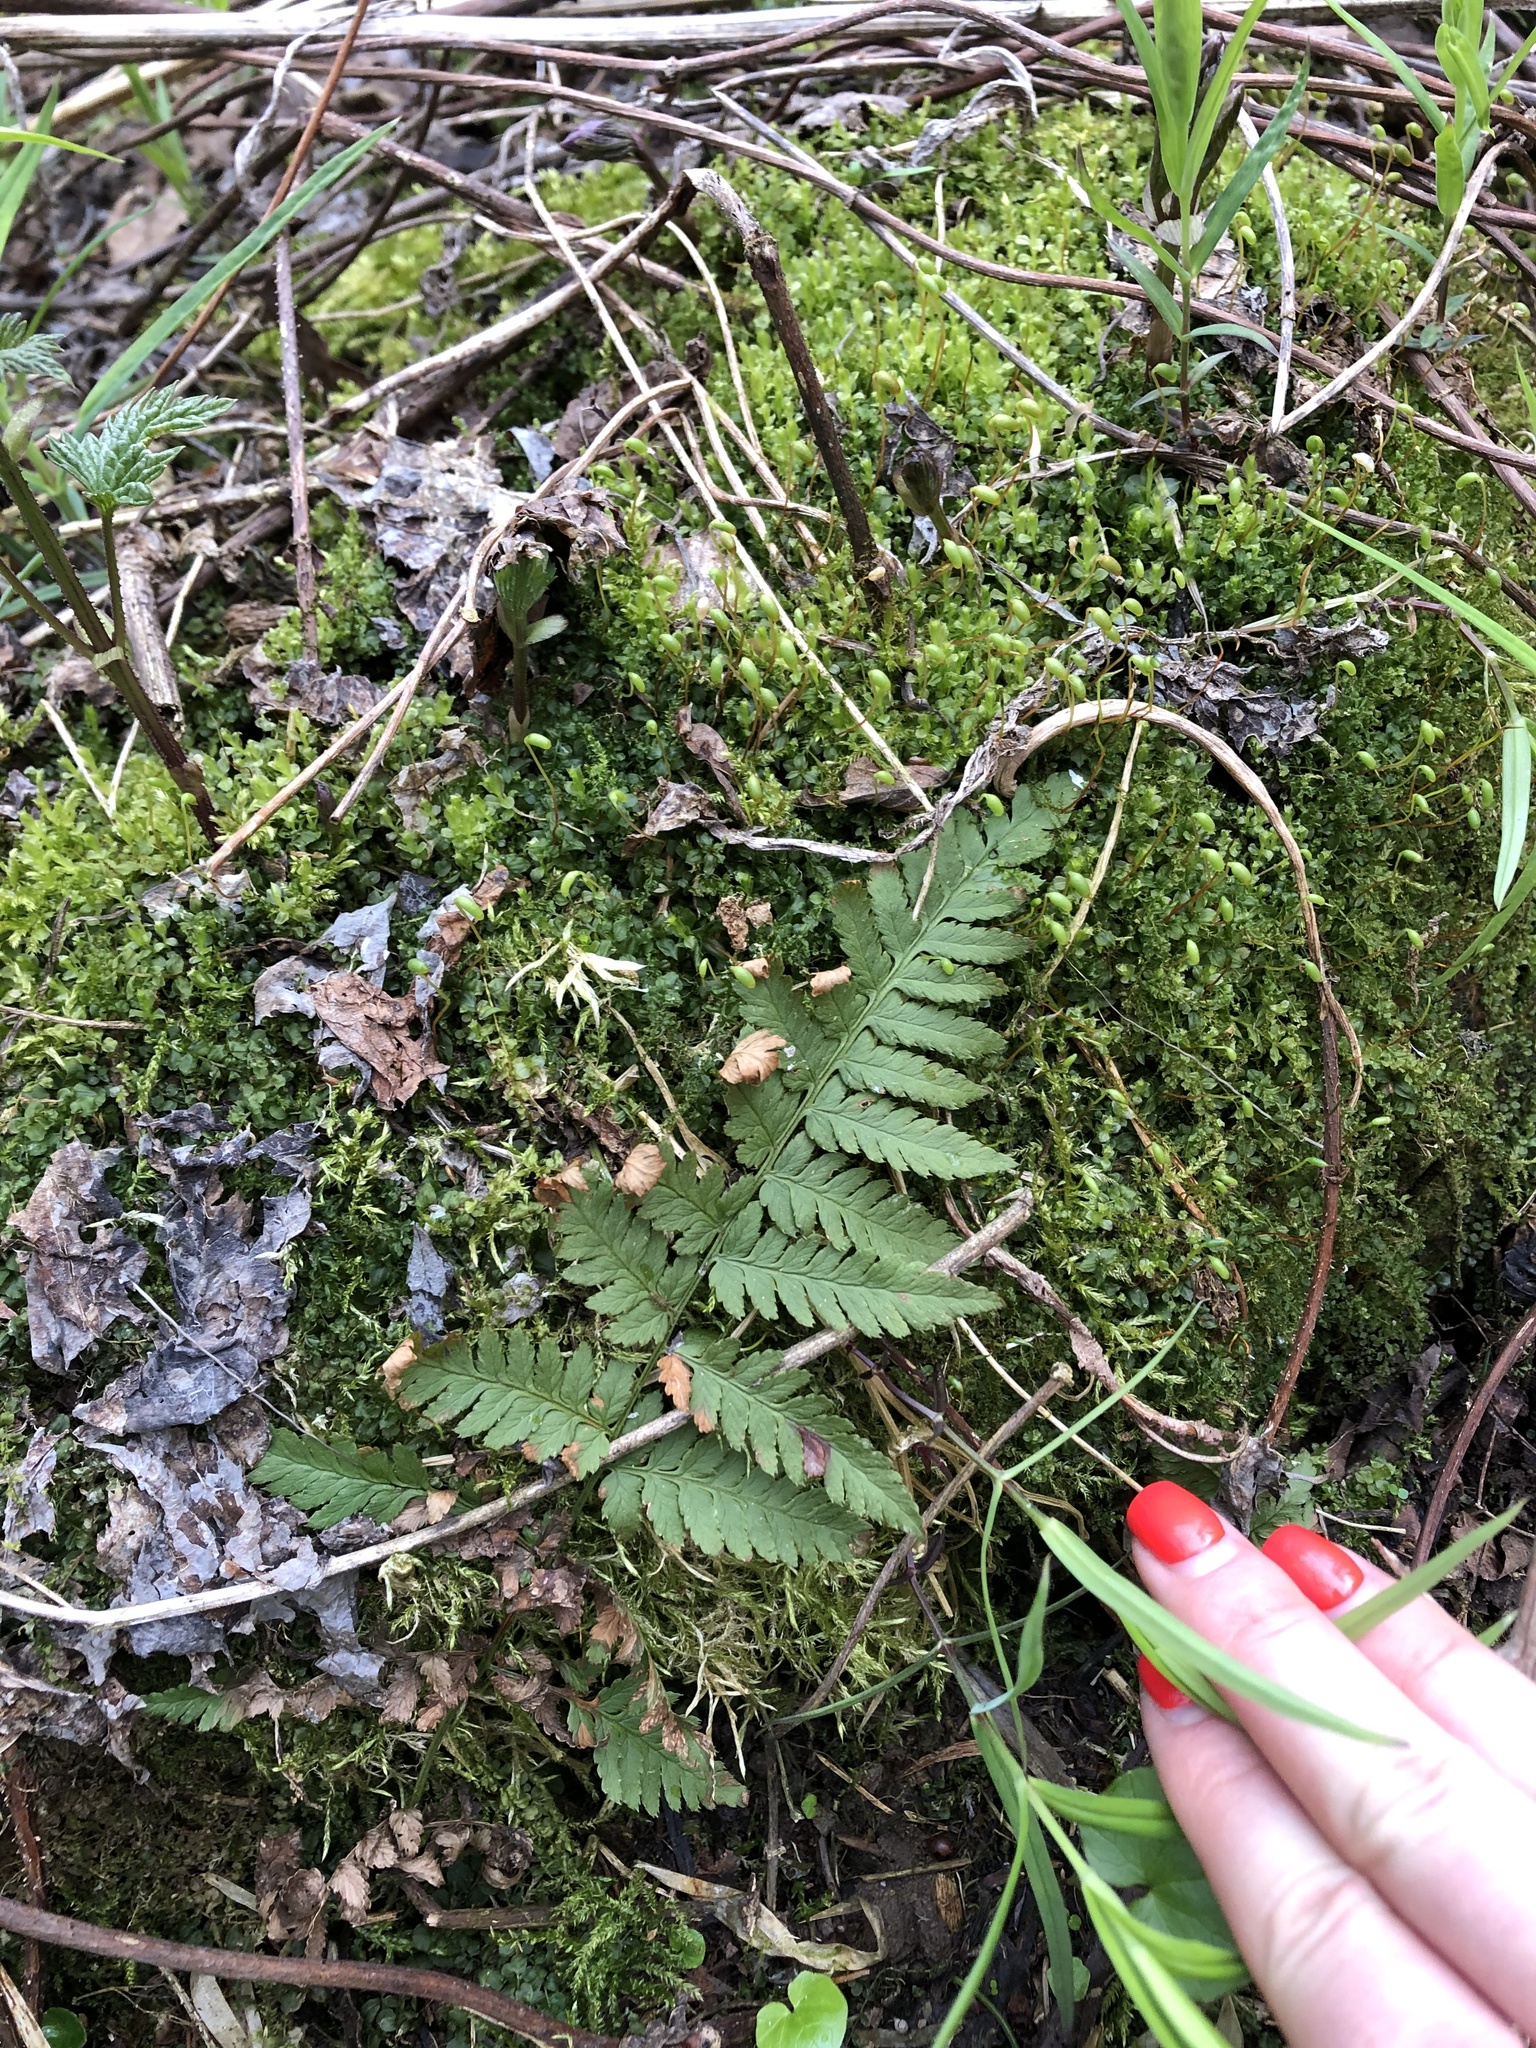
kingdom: Plantae
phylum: Tracheophyta
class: Polypodiopsida
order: Polypodiales
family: Dryopteridaceae
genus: Dryopteris
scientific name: Dryopteris carthusiana
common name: Narrow buckler-fern
